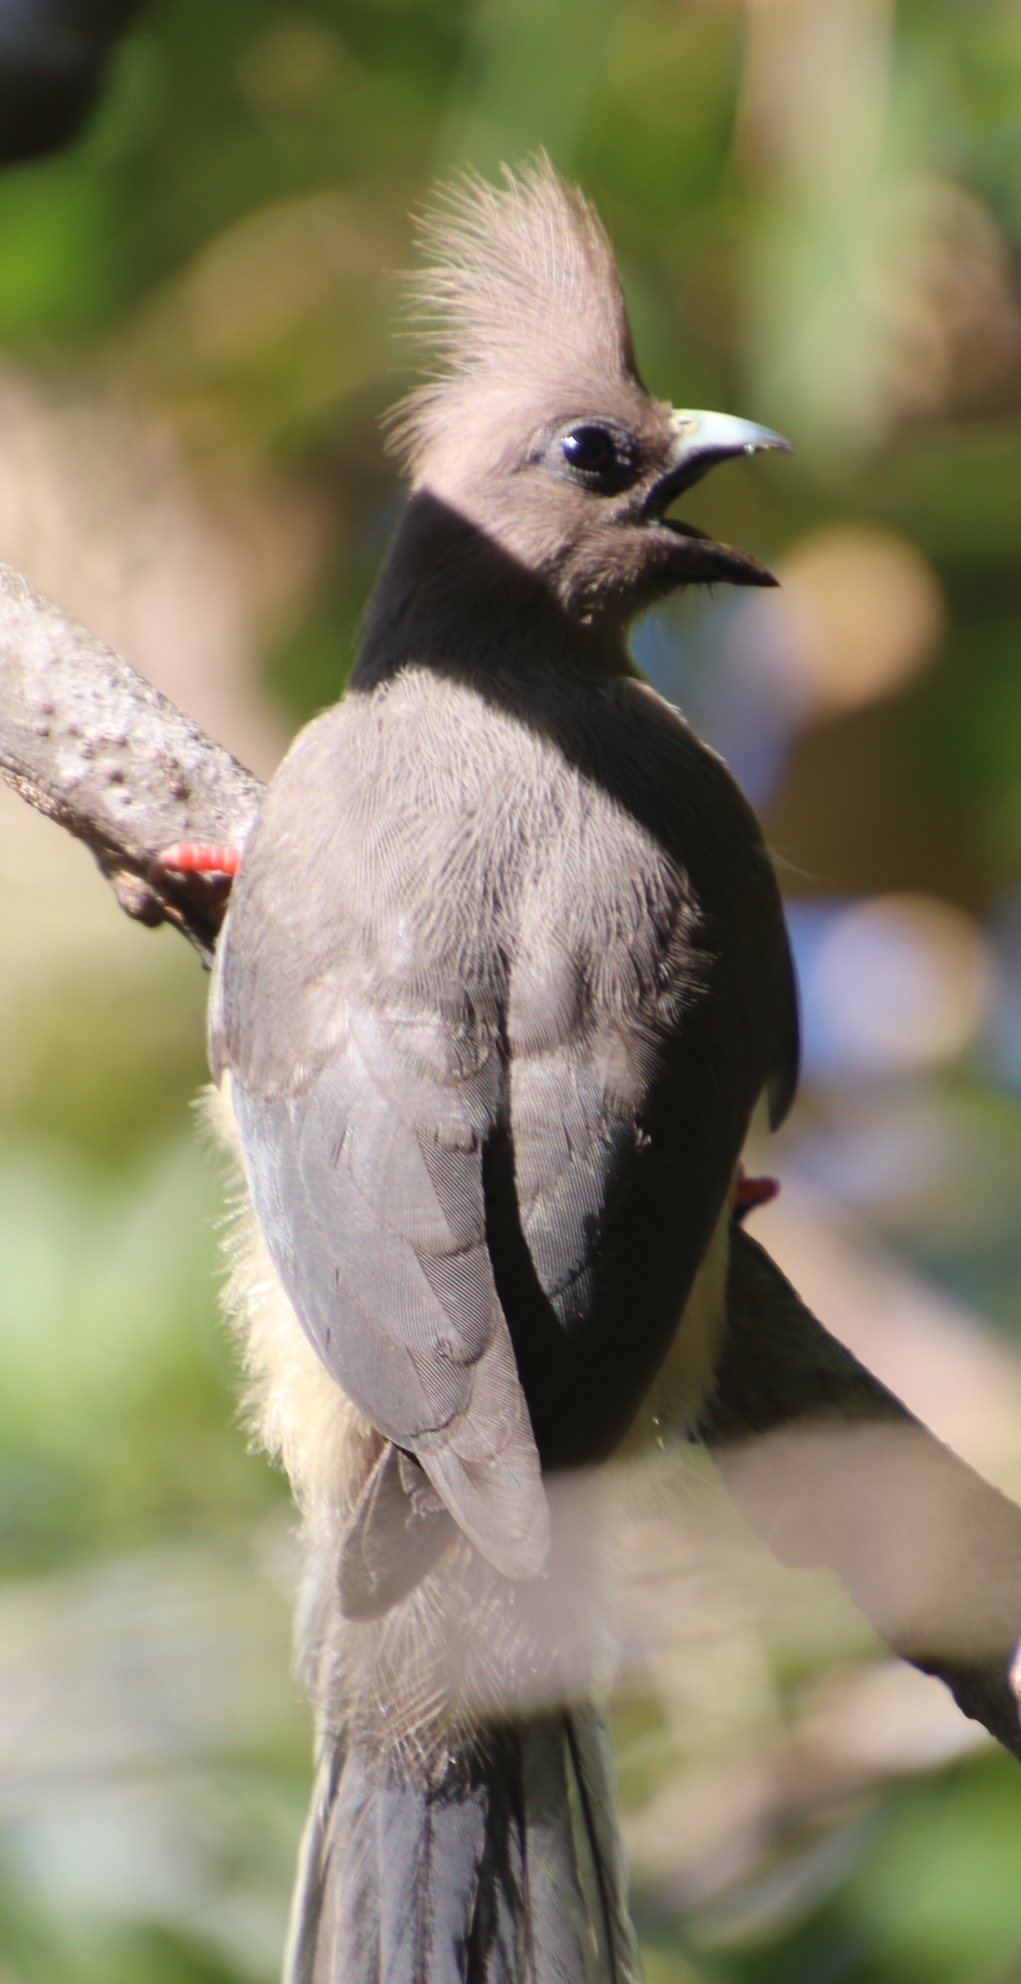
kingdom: Animalia
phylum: Chordata
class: Aves
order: Coliiformes
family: Coliidae
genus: Colius
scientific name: Colius colius
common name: White-backed mousebird
